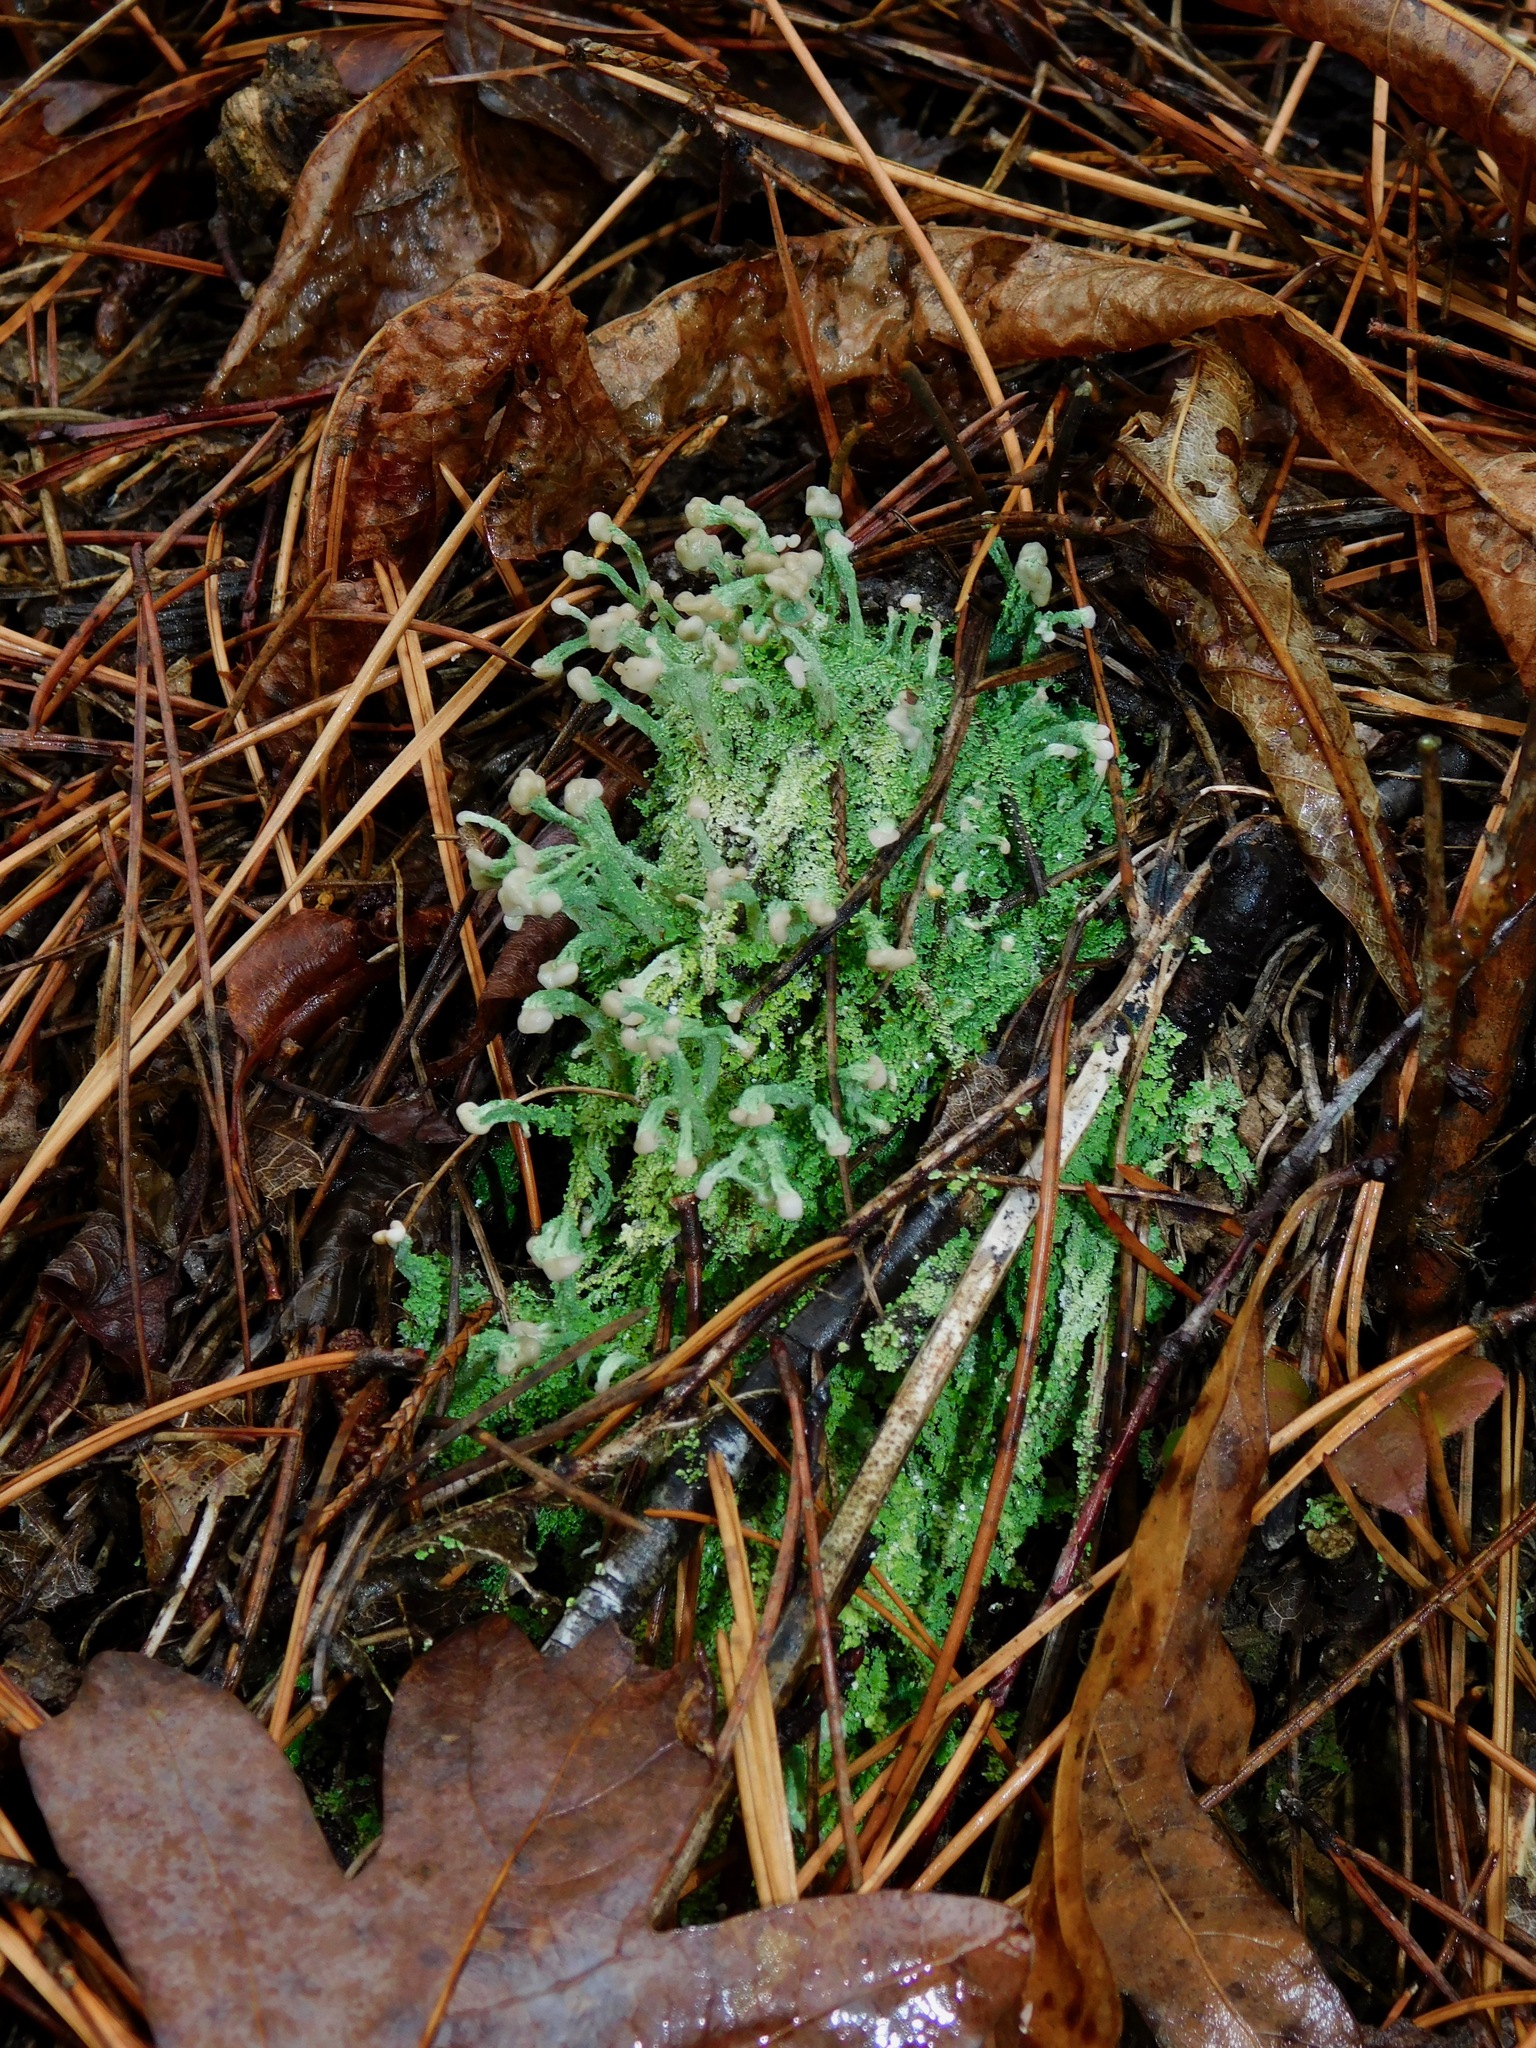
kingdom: Fungi
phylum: Ascomycota
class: Lecanoromycetes
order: Lecanorales
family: Cladoniaceae
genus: Cladonia
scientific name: Cladonia peziziformis
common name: Cup lichen
